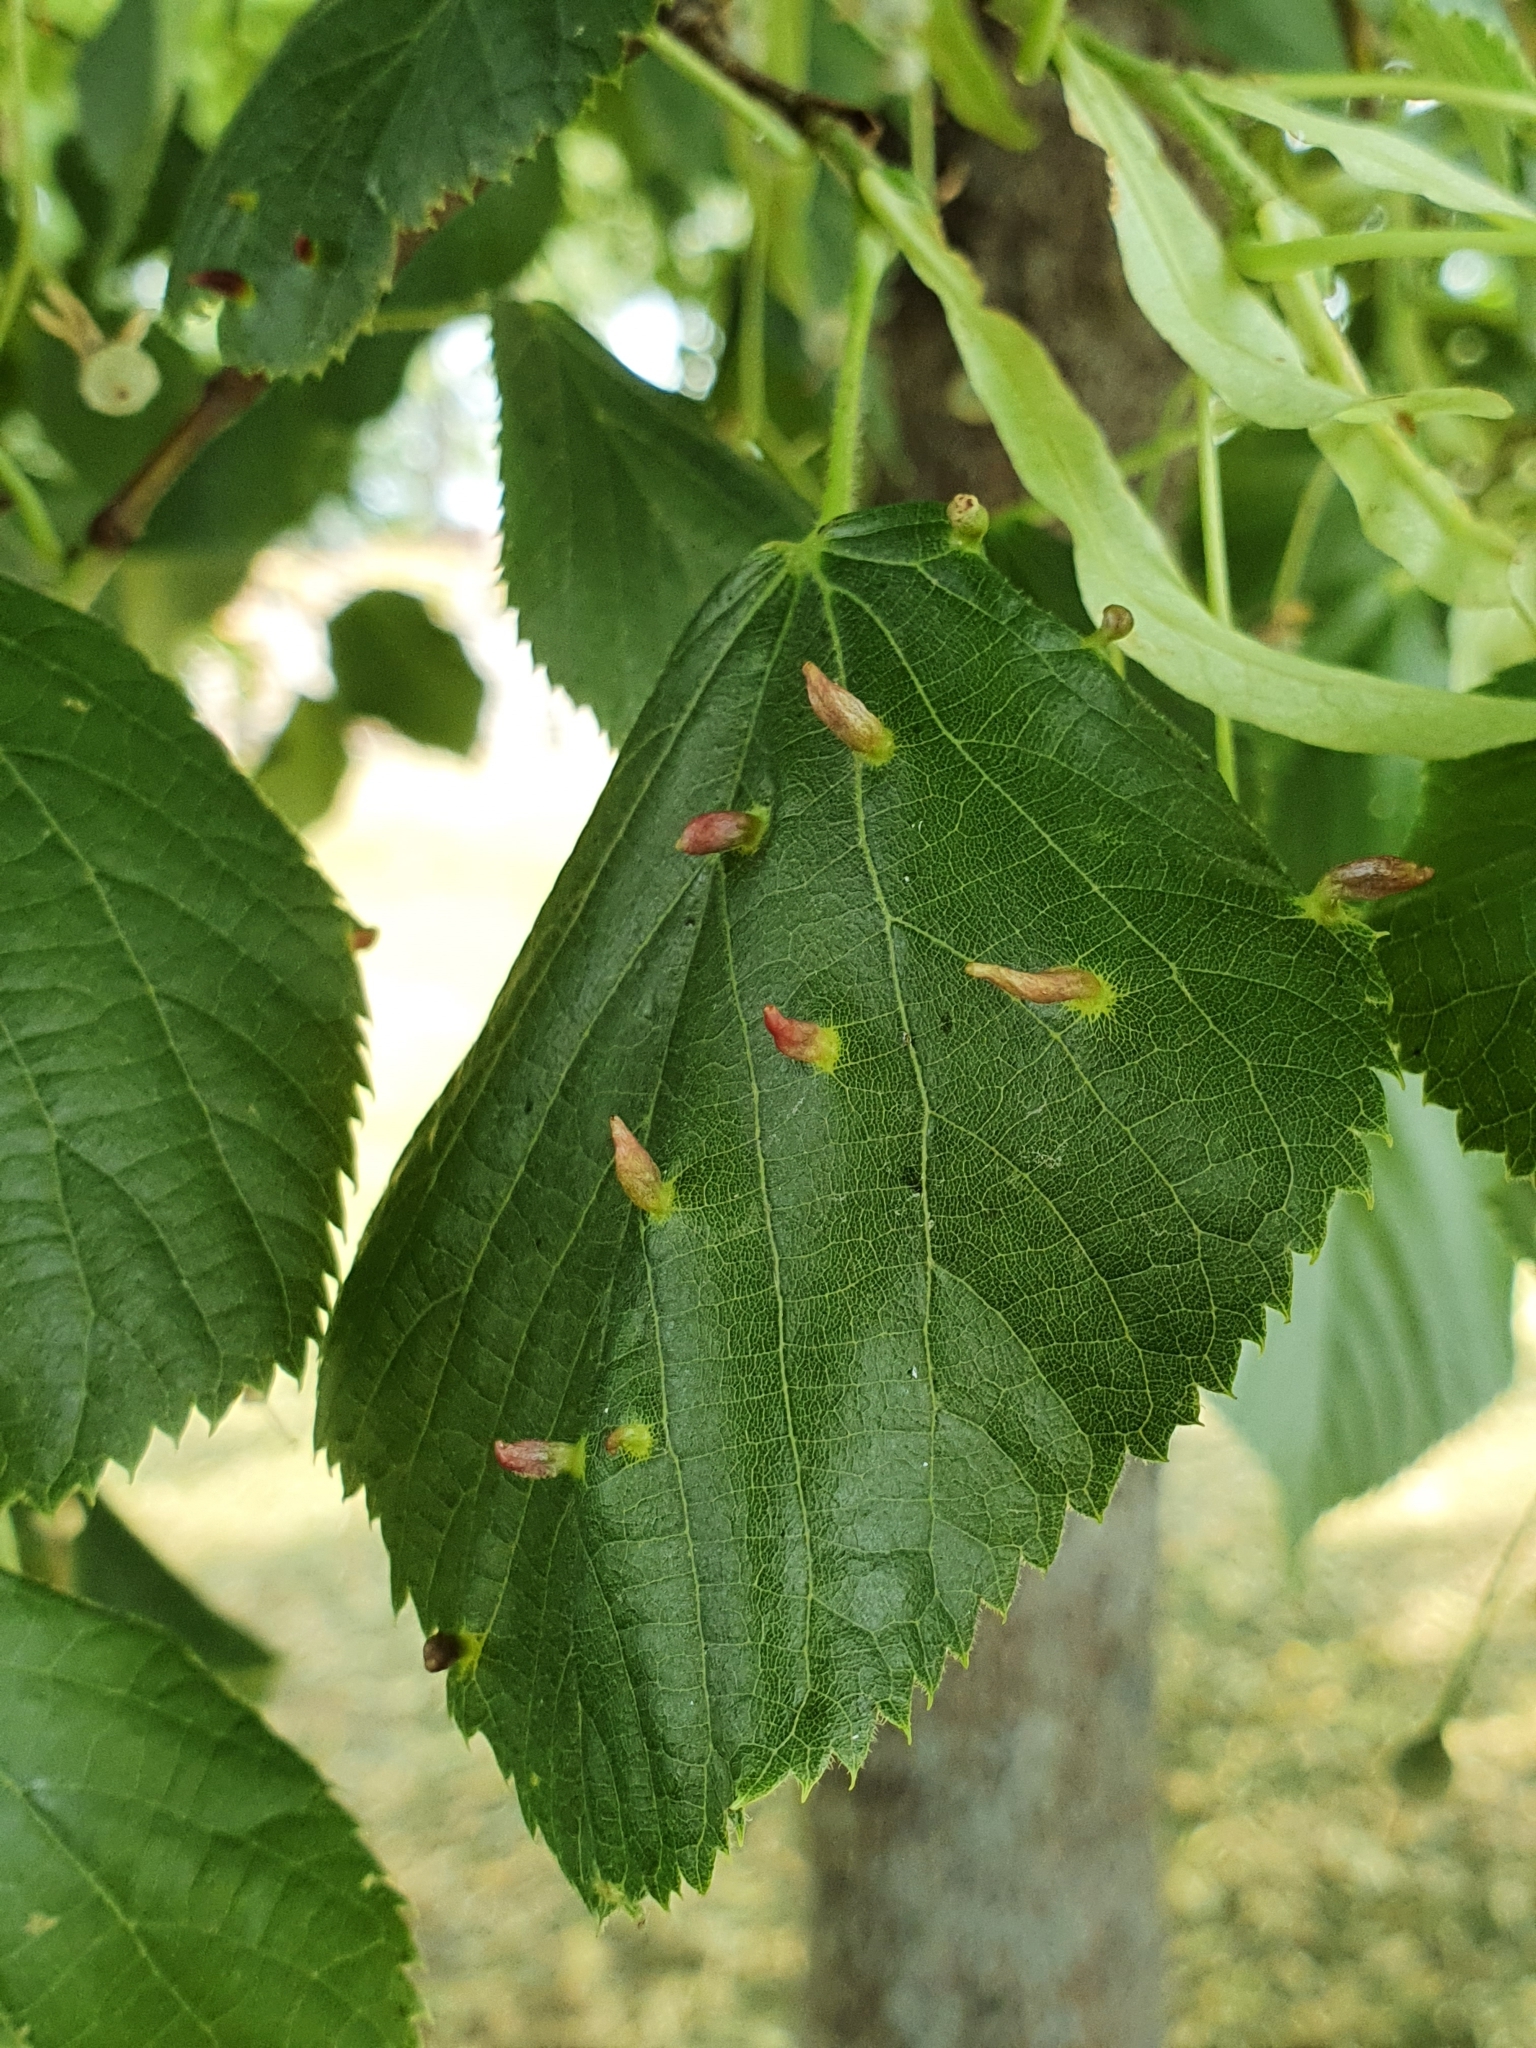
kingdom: Animalia
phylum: Arthropoda
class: Arachnida
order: Trombidiformes
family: Eriophyidae
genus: Eriophyes
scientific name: Eriophyes tiliae
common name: Red nail gall mite
